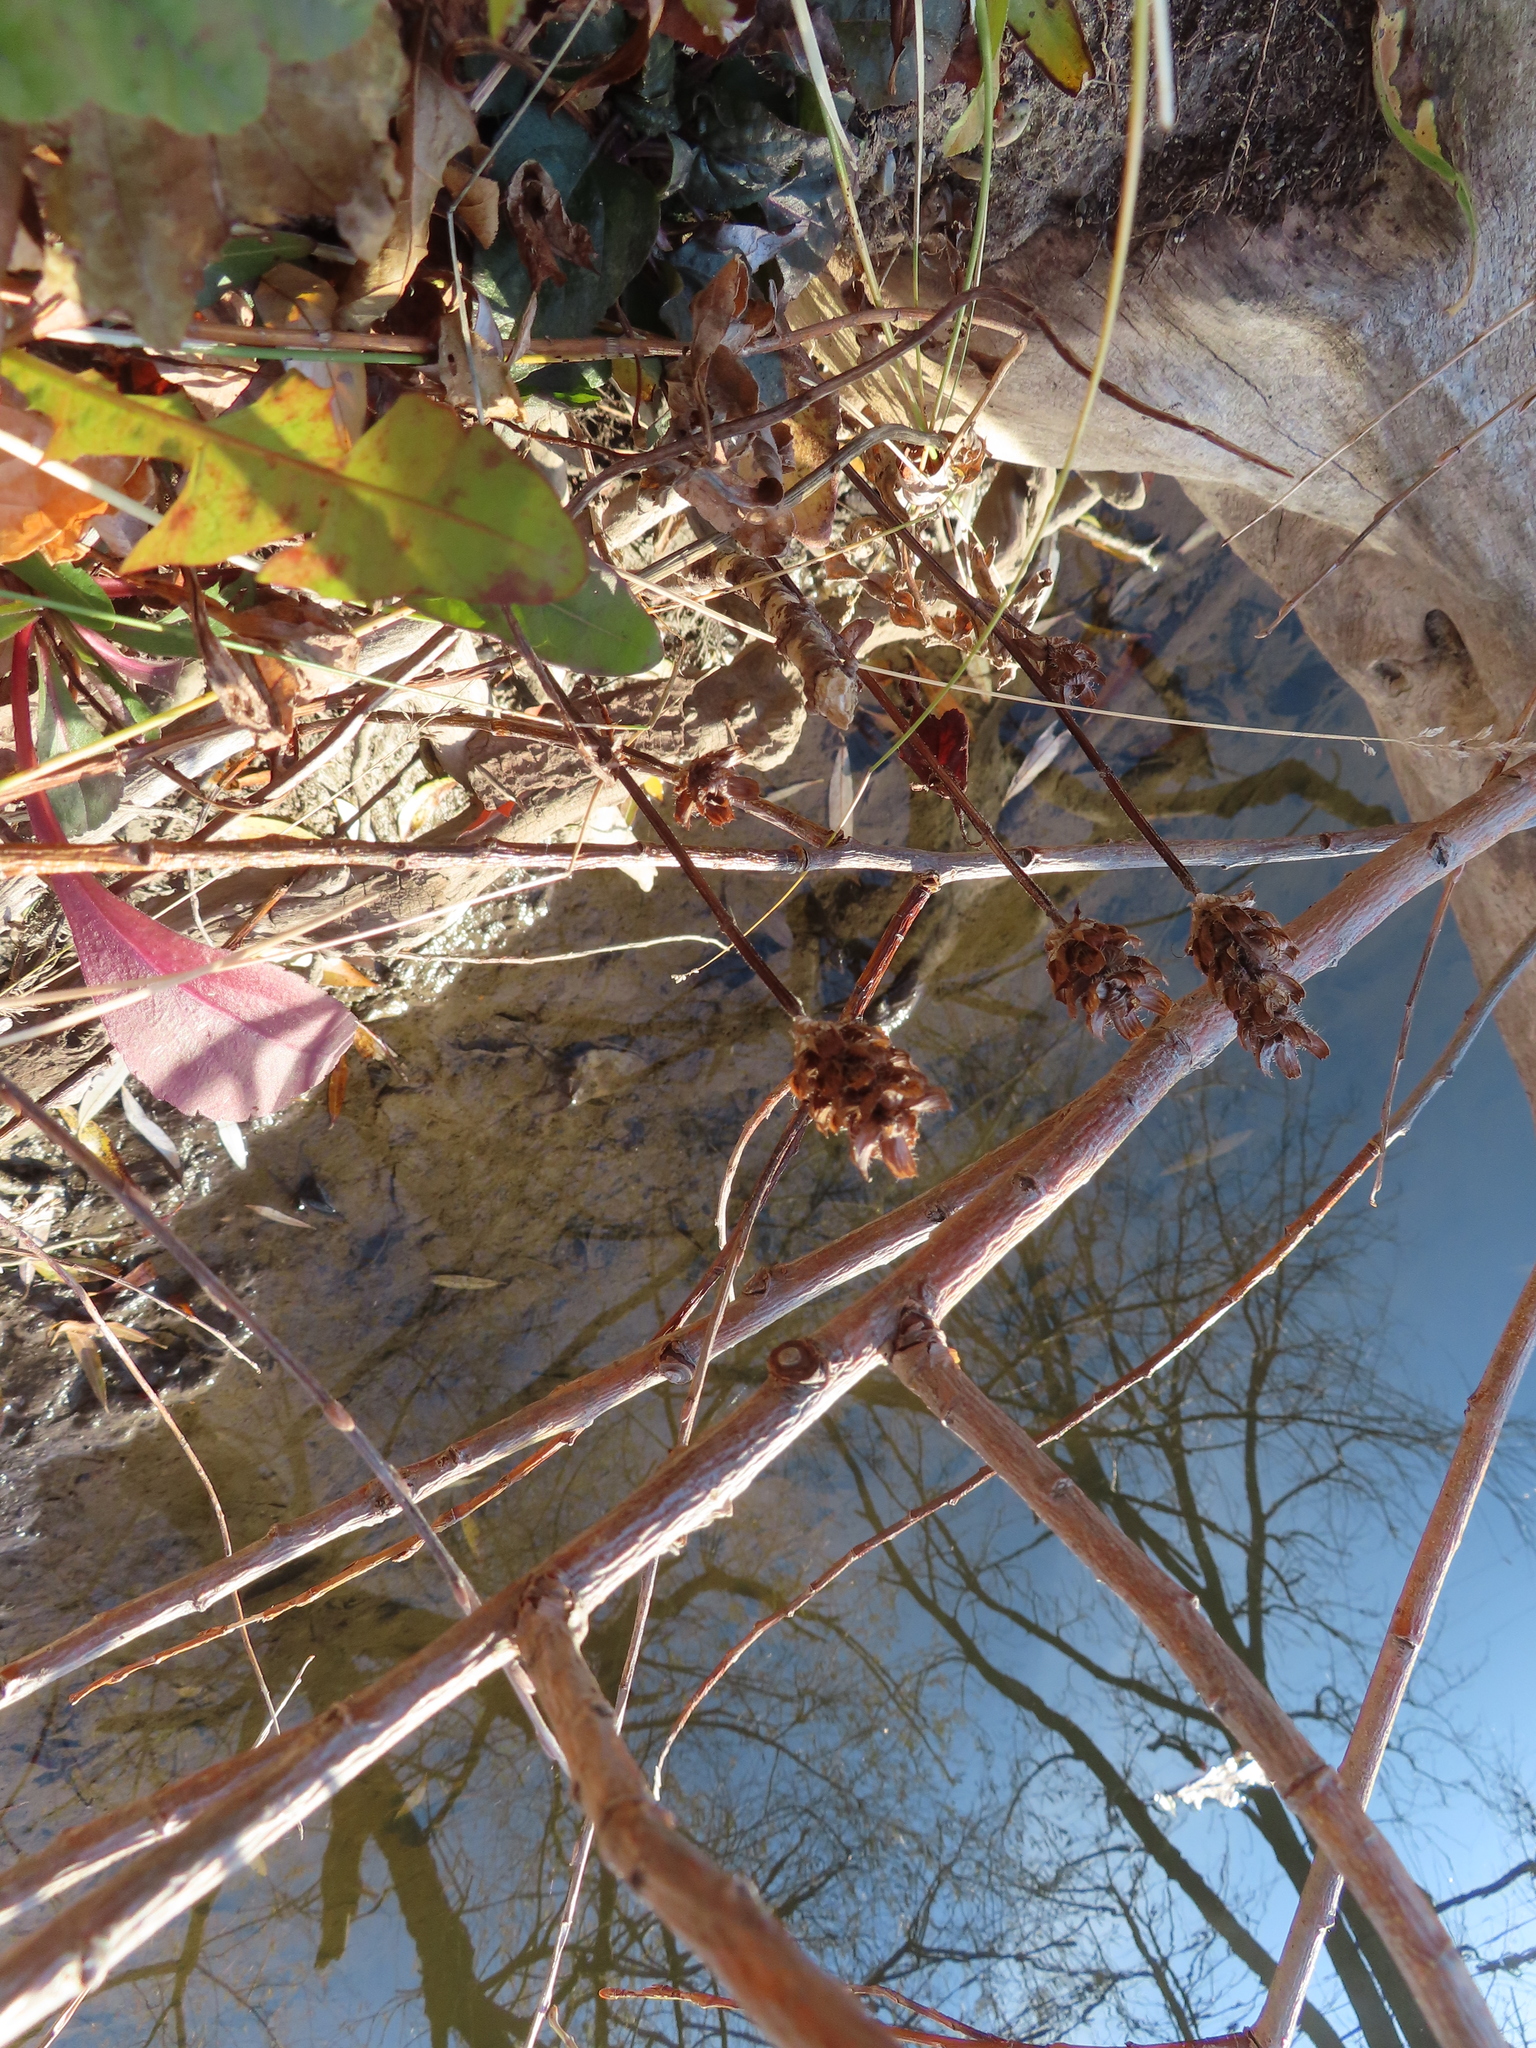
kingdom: Plantae
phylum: Tracheophyta
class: Magnoliopsida
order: Lamiales
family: Lamiaceae
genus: Prunella
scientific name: Prunella vulgaris
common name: Heal-all
